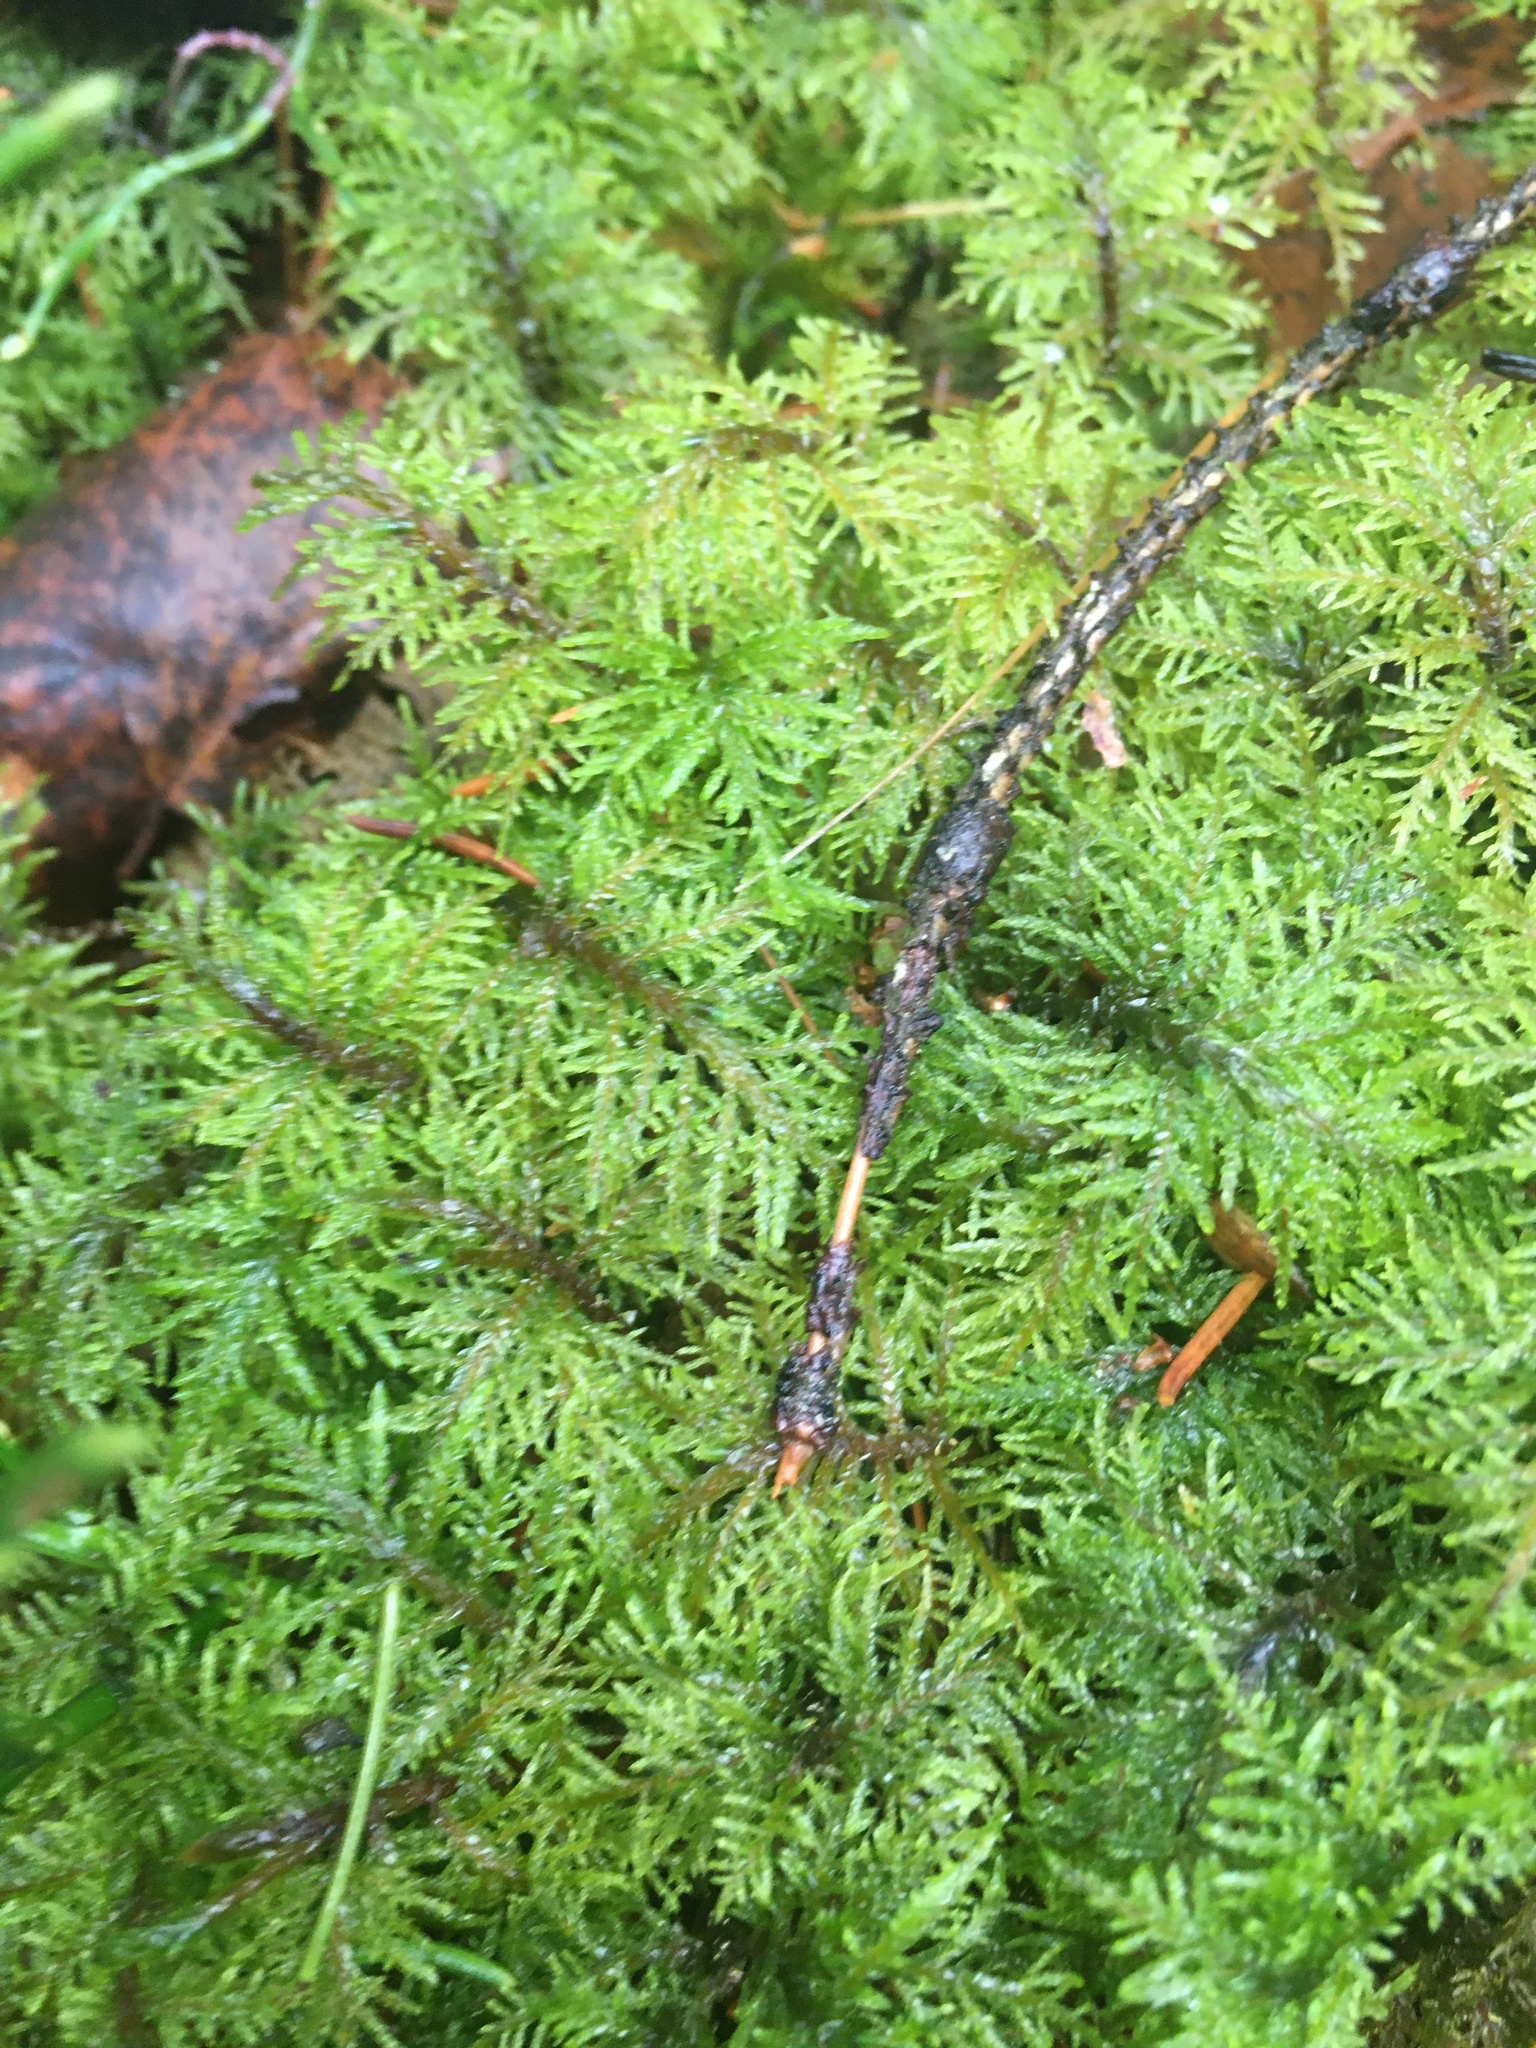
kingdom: Plantae
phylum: Bryophyta
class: Bryopsida
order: Hypnales
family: Hylocomiaceae
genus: Hylocomium
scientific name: Hylocomium splendens
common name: Stairstep moss
